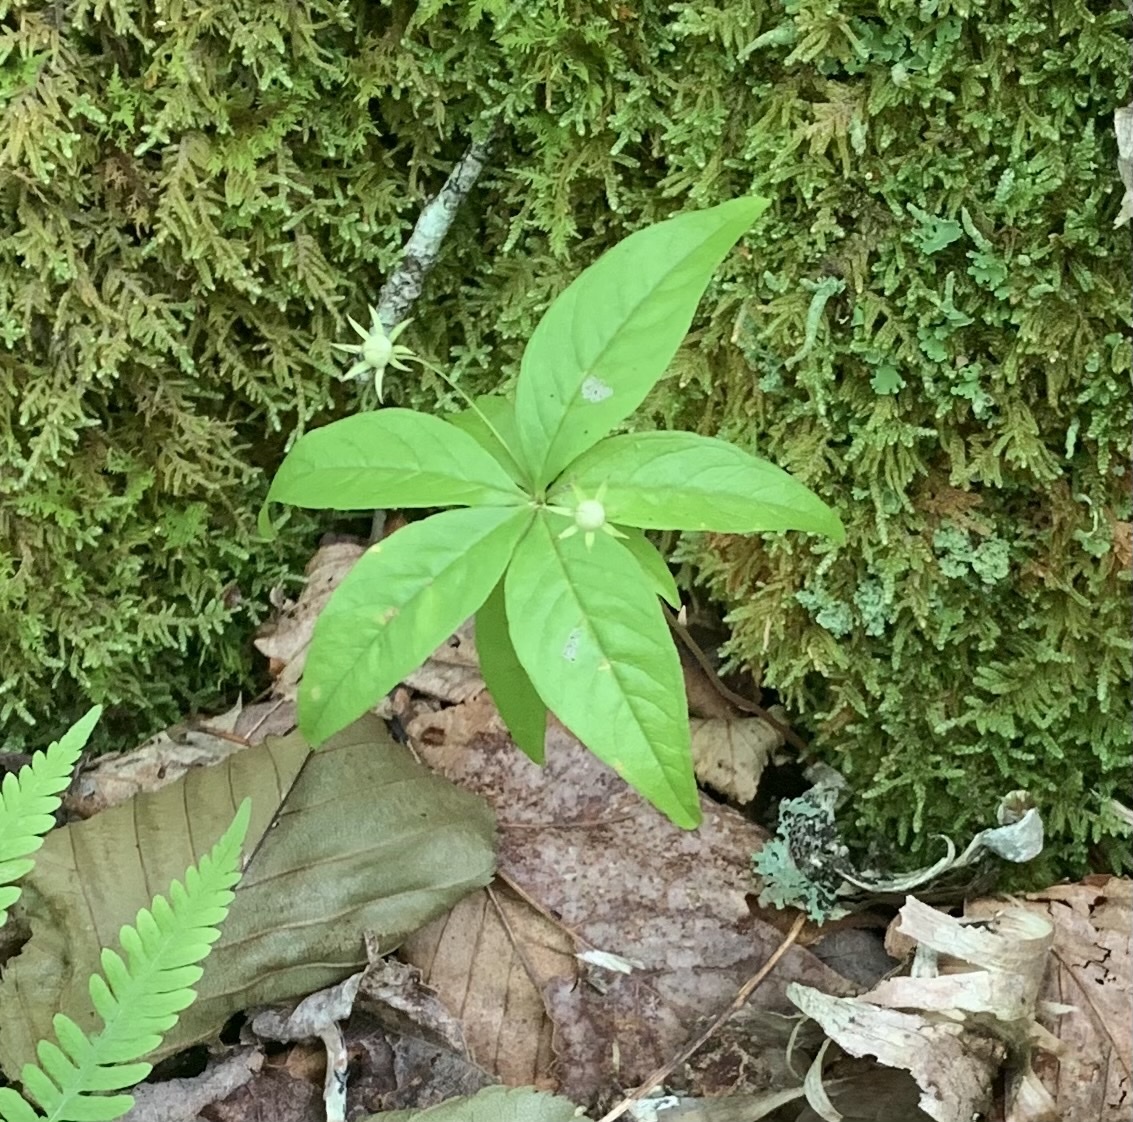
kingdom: Plantae
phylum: Tracheophyta
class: Magnoliopsida
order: Ericales
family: Primulaceae
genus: Lysimachia
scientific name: Lysimachia borealis
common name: American starflower
